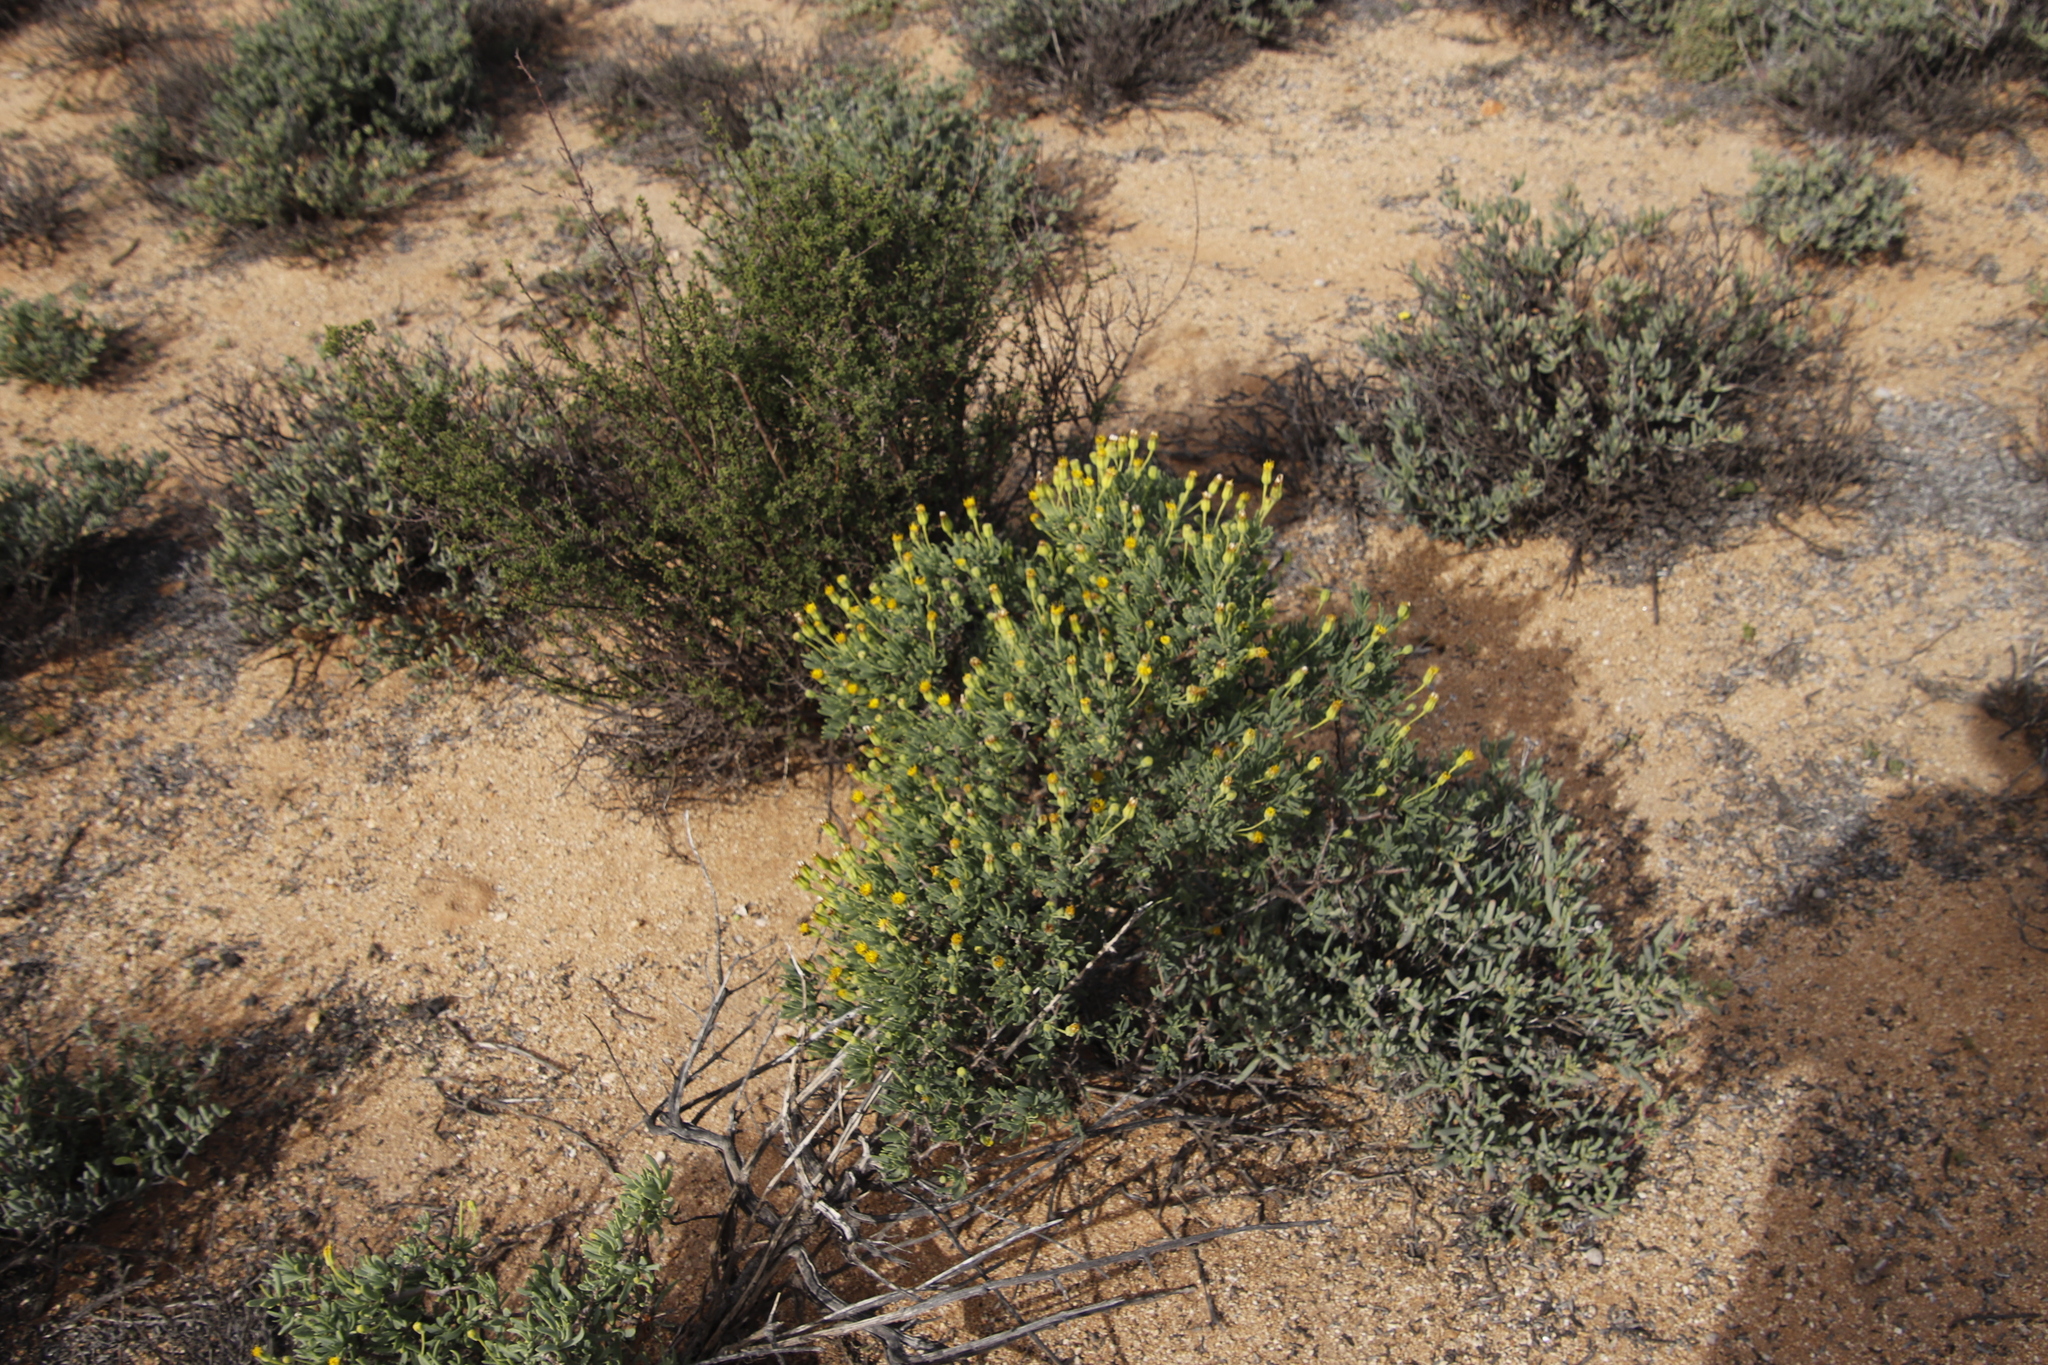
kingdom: Plantae
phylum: Tracheophyta
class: Magnoliopsida
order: Asterales
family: Asteraceae
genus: Othonna
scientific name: Othonna arbuscula
